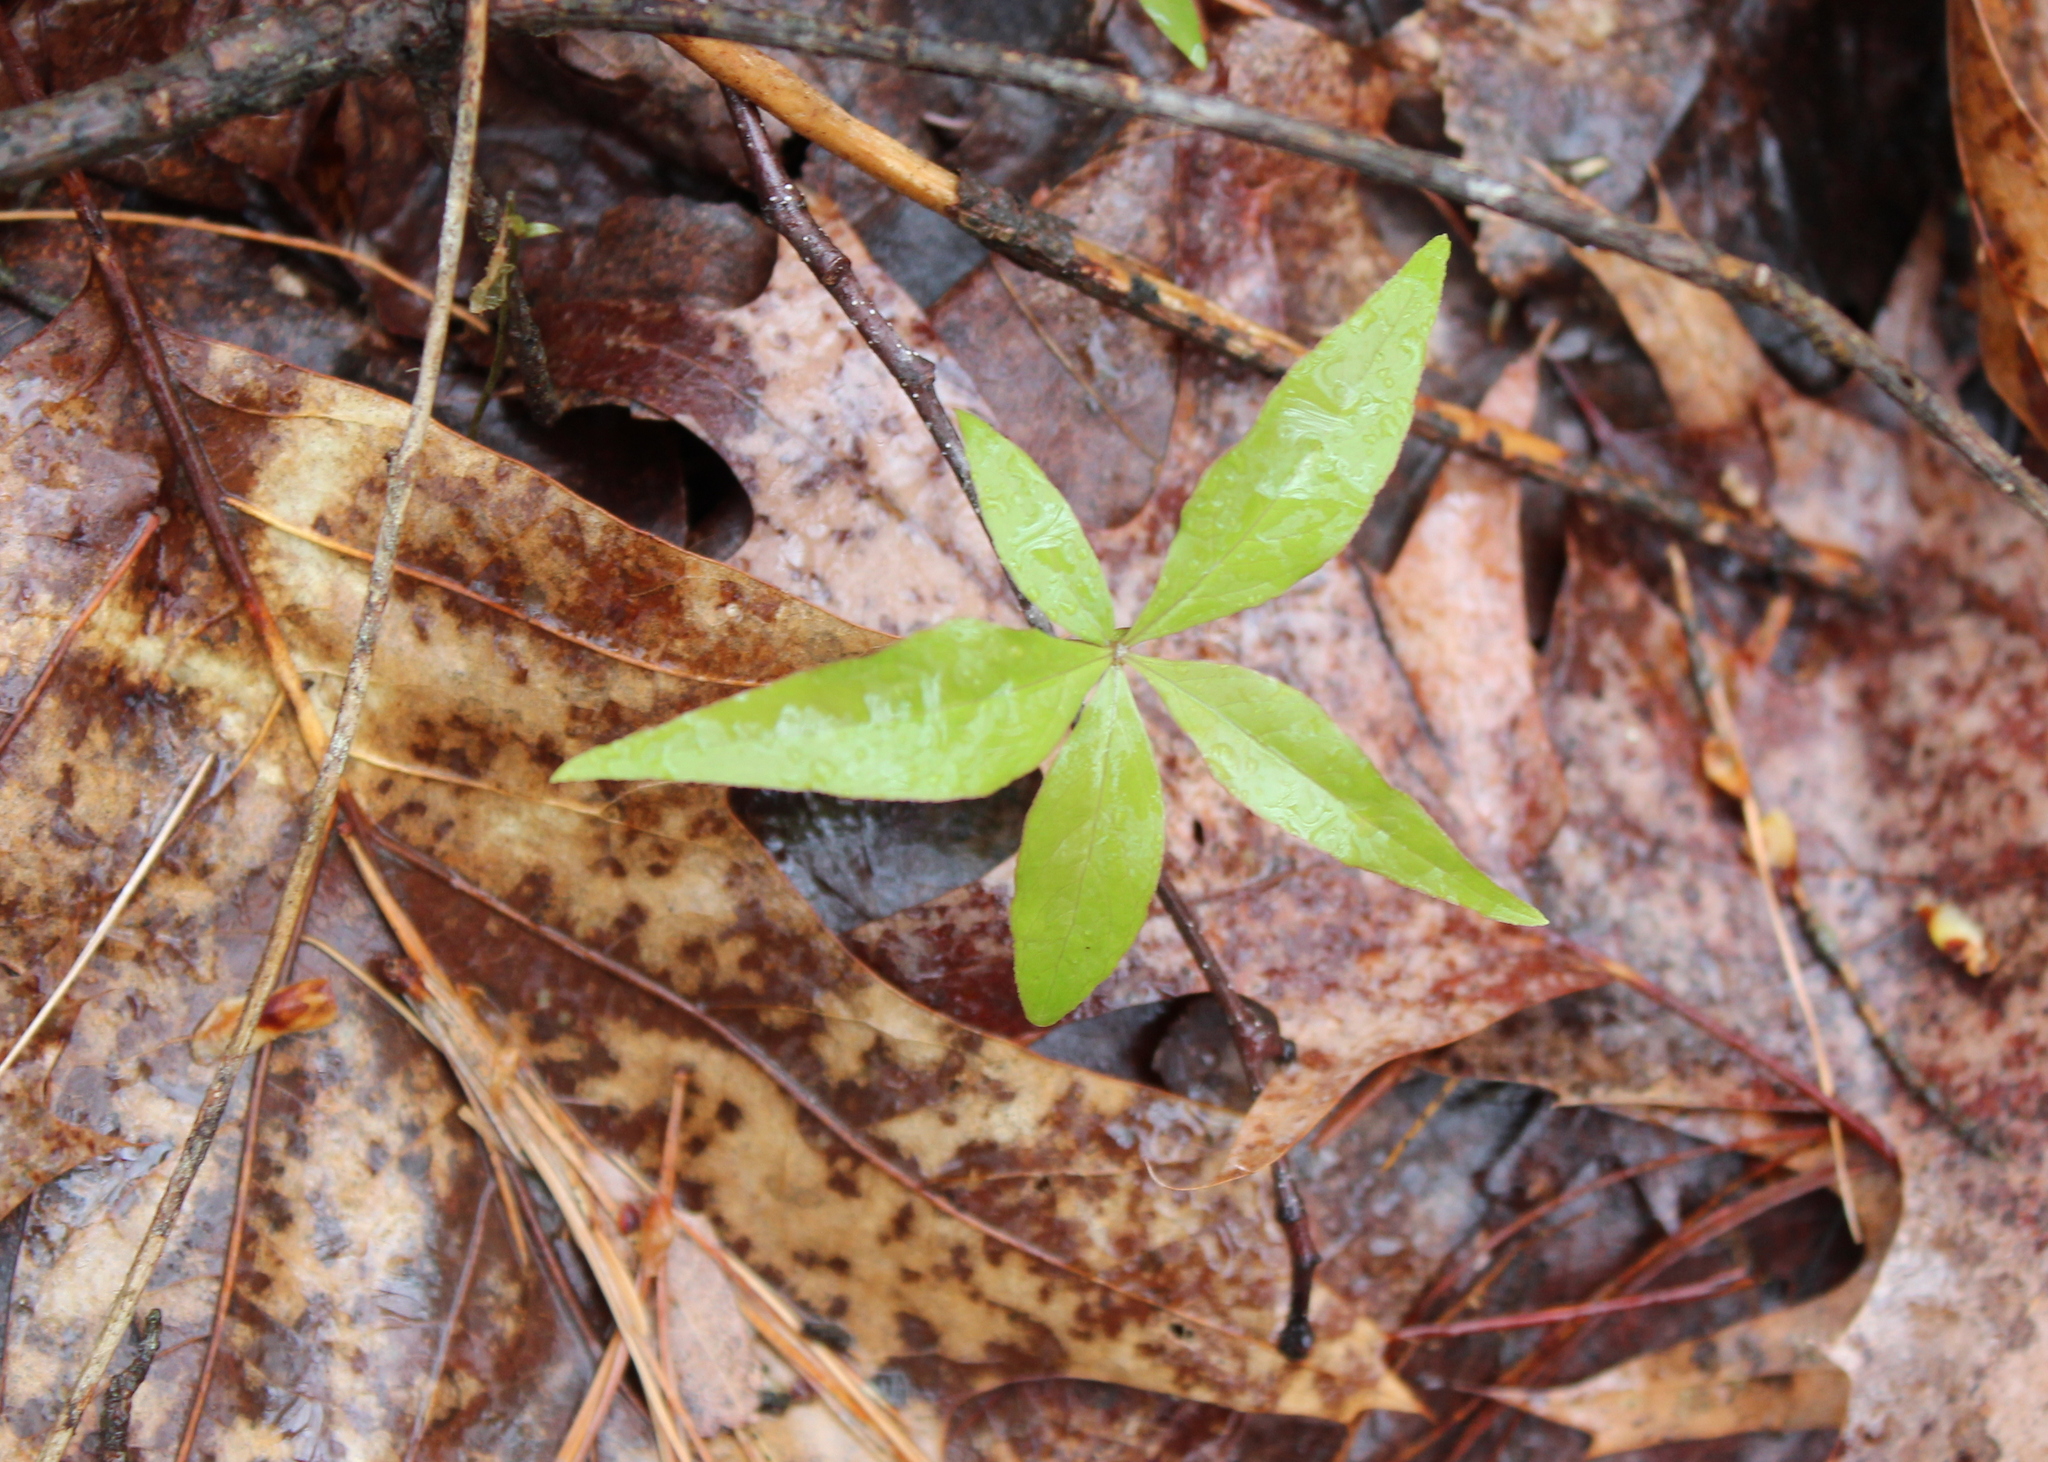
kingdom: Plantae
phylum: Tracheophyta
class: Magnoliopsida
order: Ericales
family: Primulaceae
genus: Lysimachia
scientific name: Lysimachia borealis
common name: American starflower
